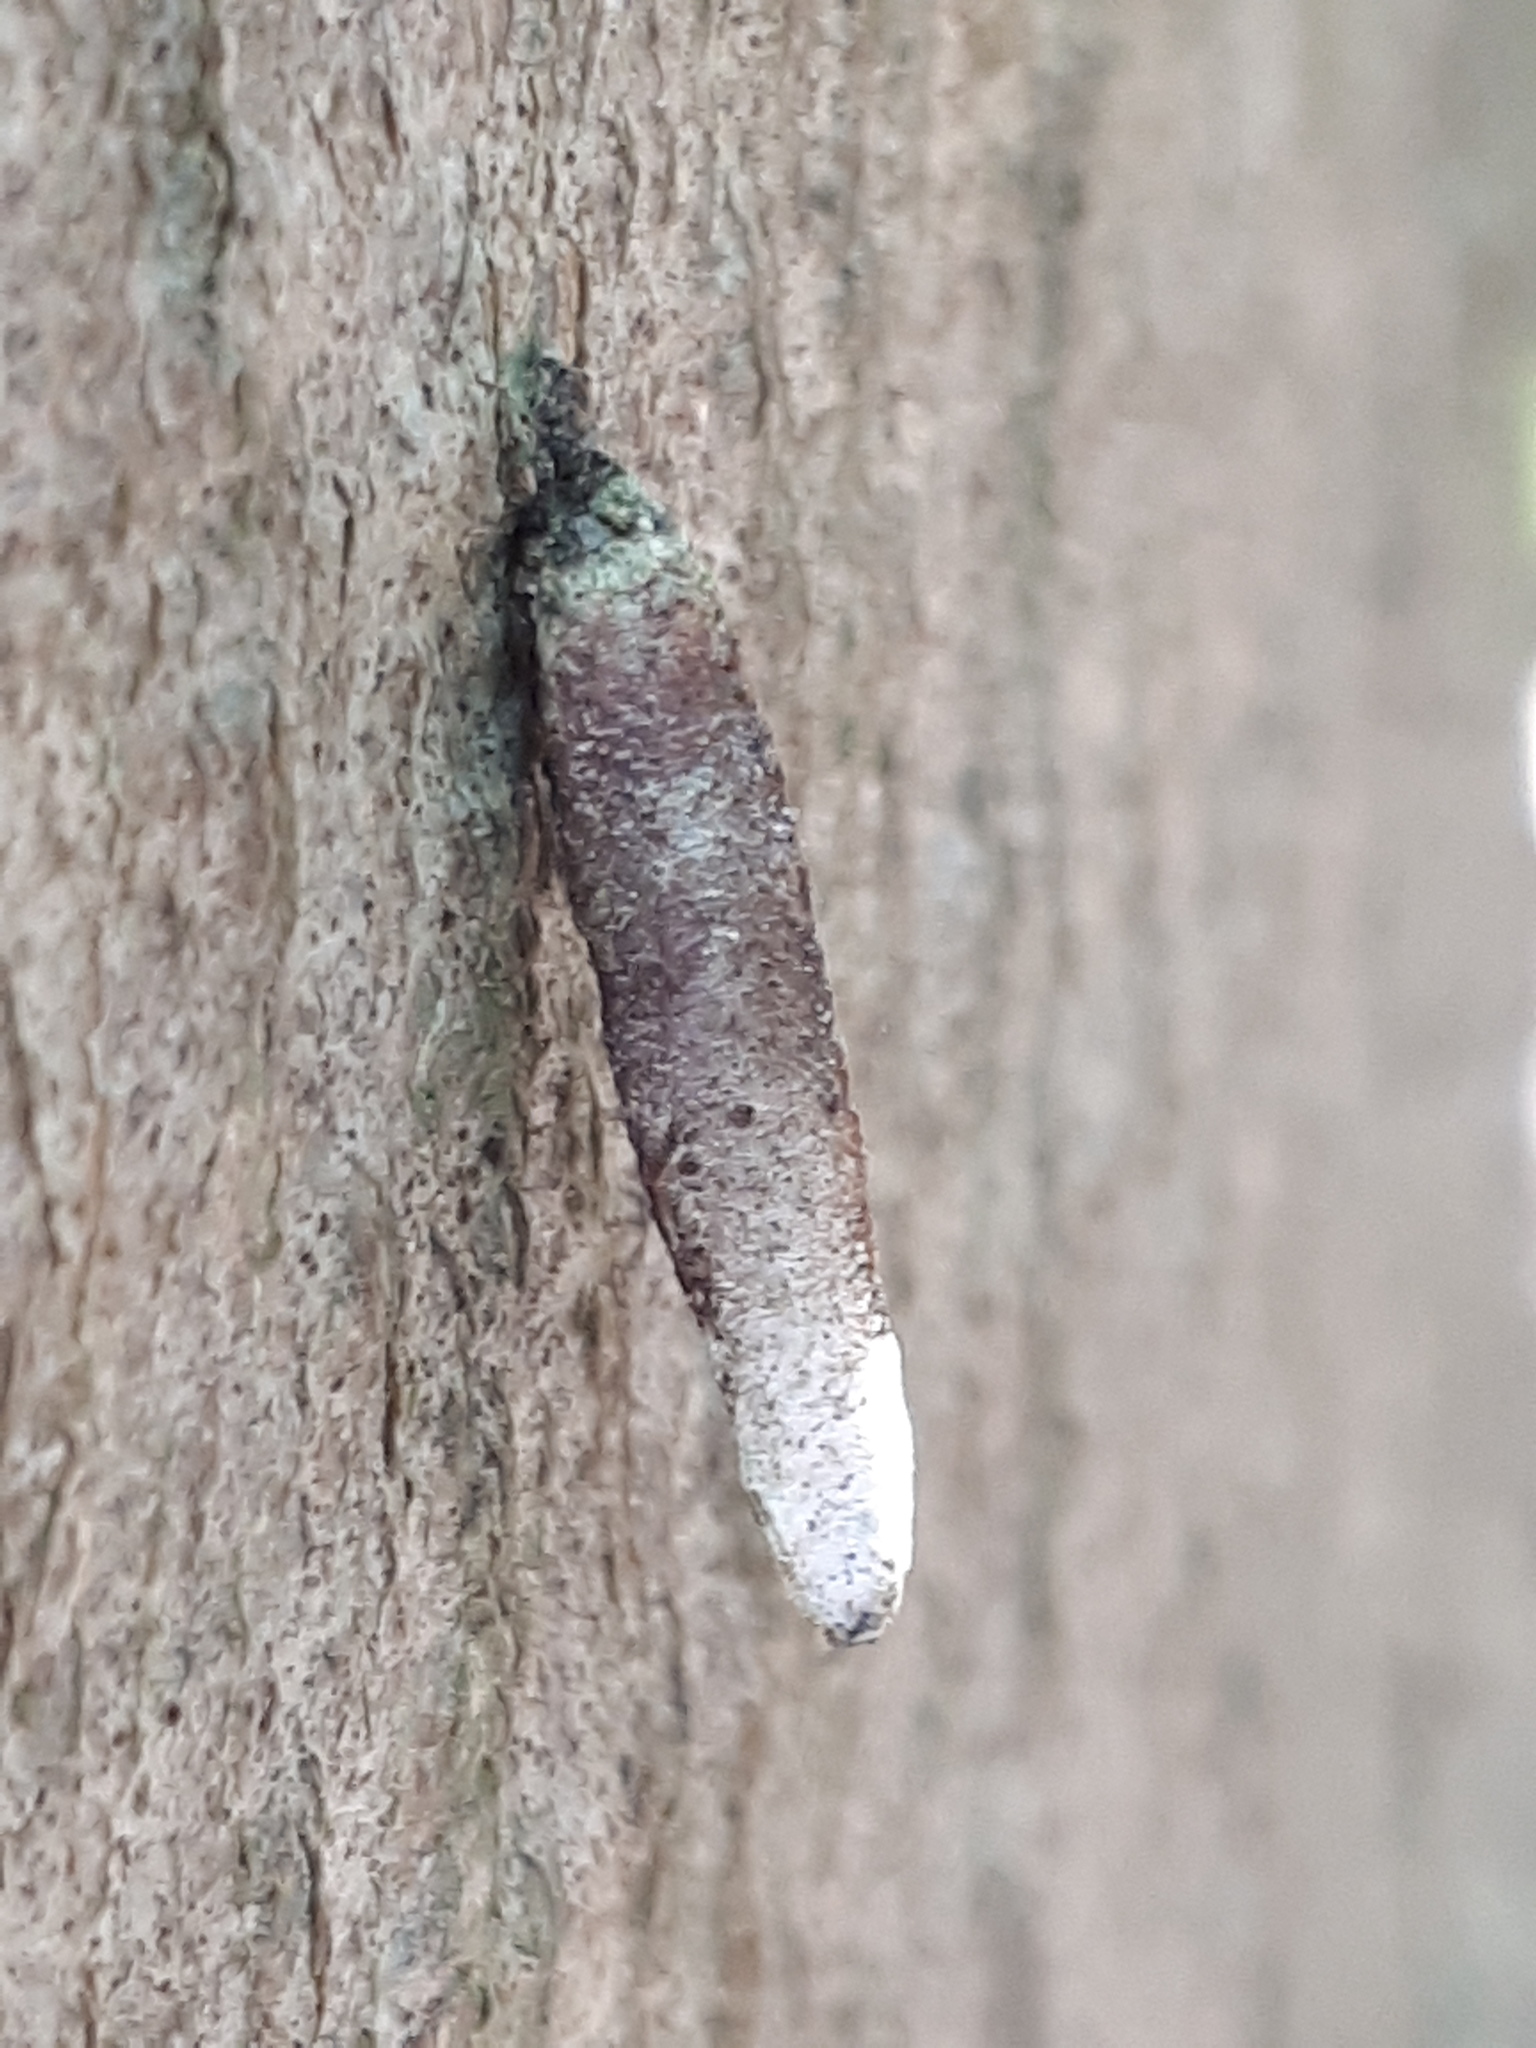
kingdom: Animalia
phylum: Arthropoda
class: Insecta
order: Lepidoptera
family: Psychidae
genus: Taleporia
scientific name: Taleporia tubulosa
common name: Brown smoke
